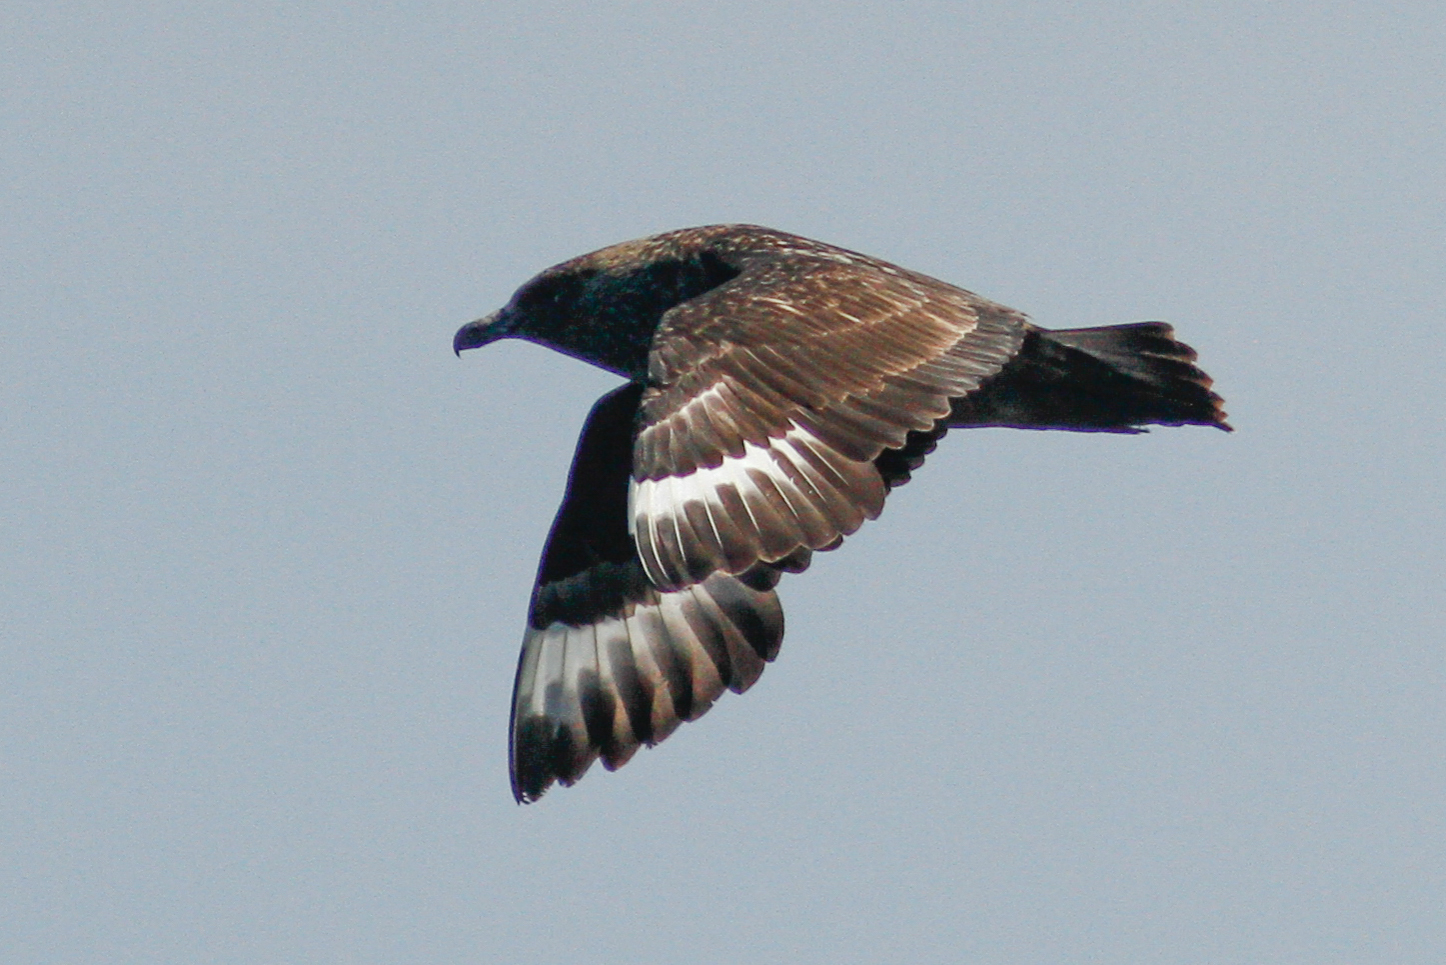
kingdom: Animalia
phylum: Chordata
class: Aves
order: Charadriiformes
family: Stercorariidae
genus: Stercorarius
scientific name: Stercorarius skua
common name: Great skua
